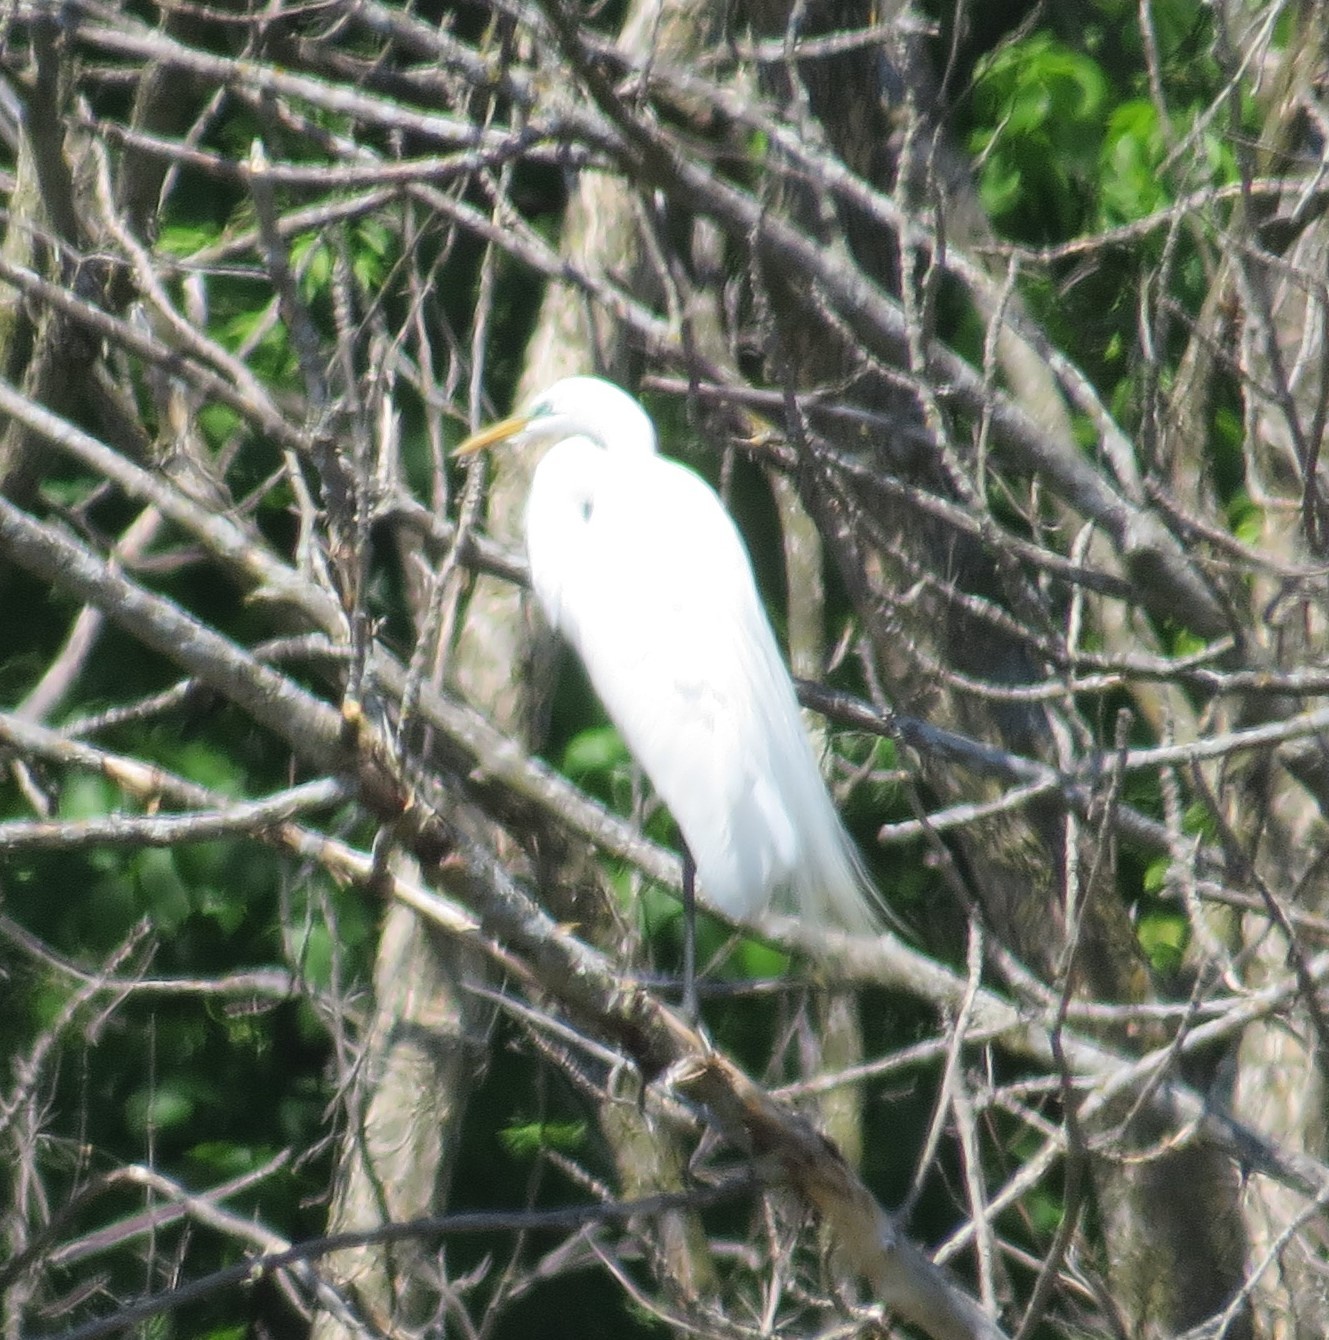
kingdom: Animalia
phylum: Chordata
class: Aves
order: Pelecaniformes
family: Ardeidae
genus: Ardea
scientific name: Ardea alba
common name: Great egret
